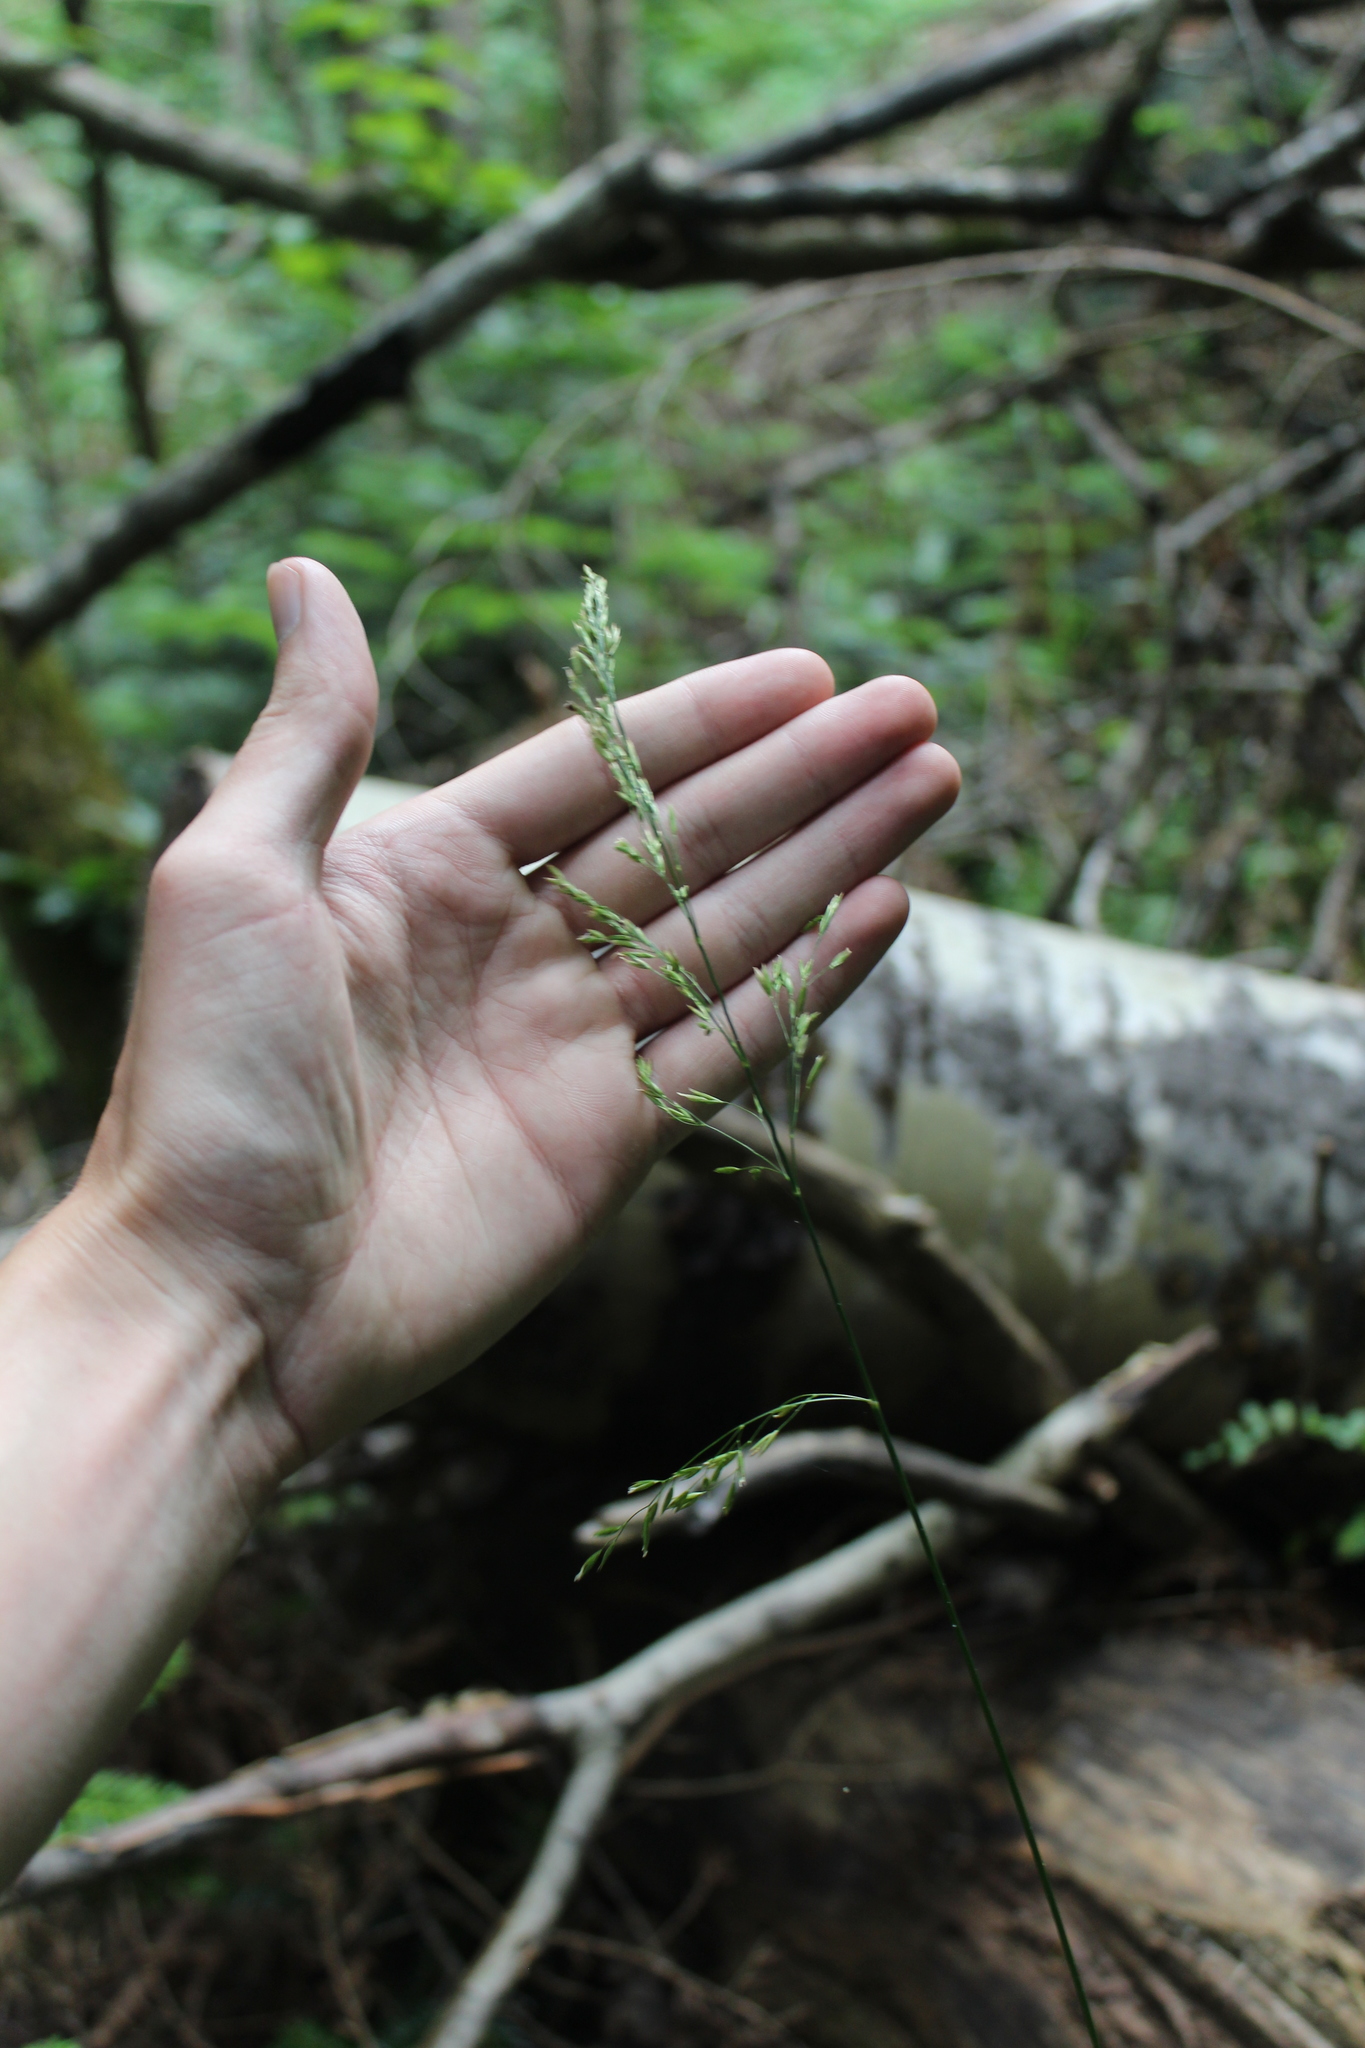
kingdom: Plantae
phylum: Tracheophyta
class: Liliopsida
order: Poales
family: Poaceae
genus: Festuca
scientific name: Festuca altissima
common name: Wood fescue
